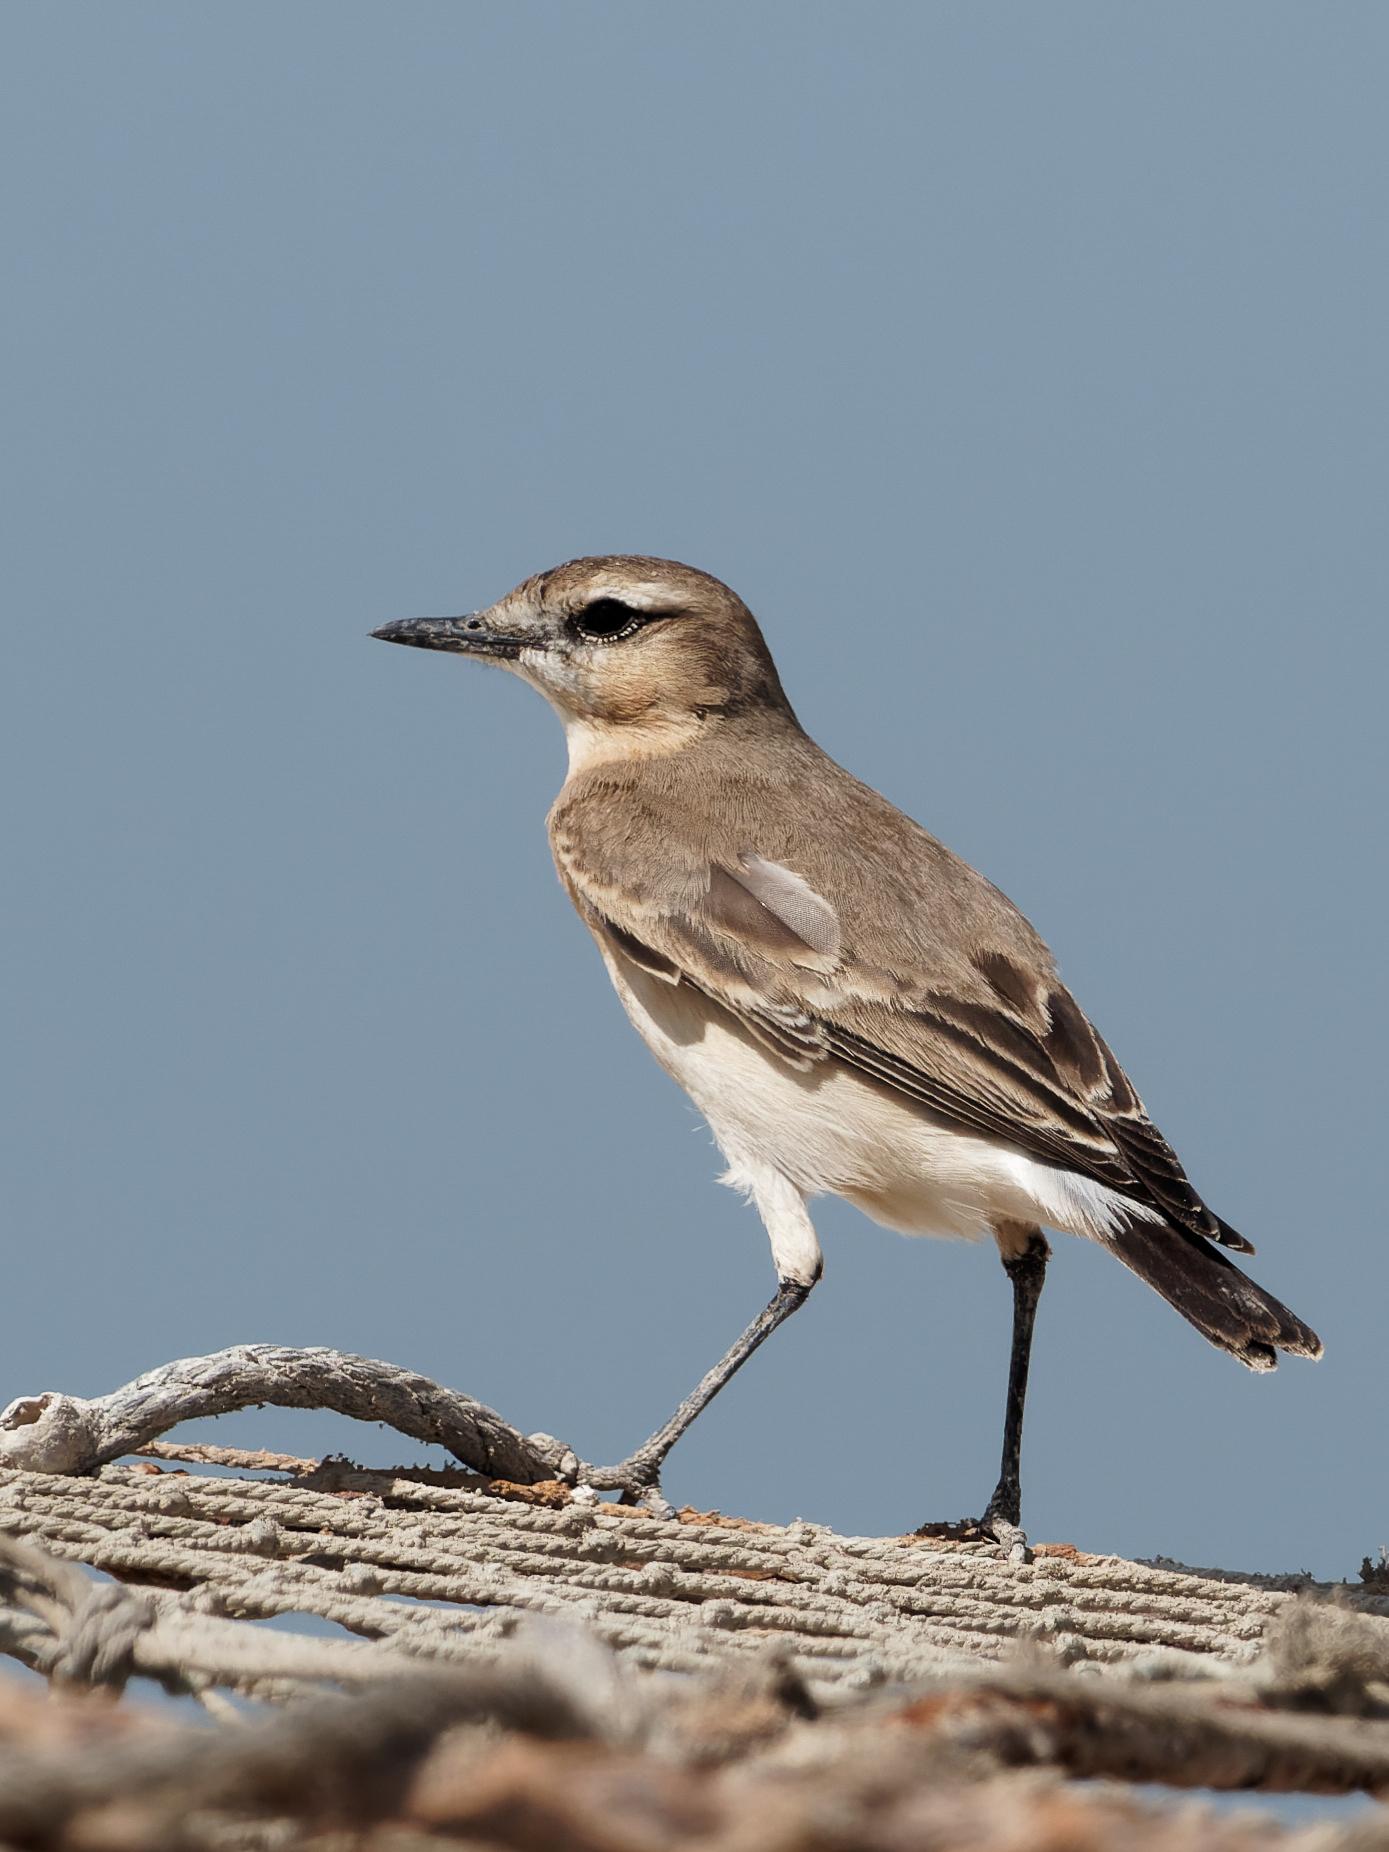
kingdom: Animalia
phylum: Chordata
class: Aves
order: Passeriformes
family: Muscicapidae
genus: Oenanthe
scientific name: Oenanthe isabellina
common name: Isabelline wheatear
